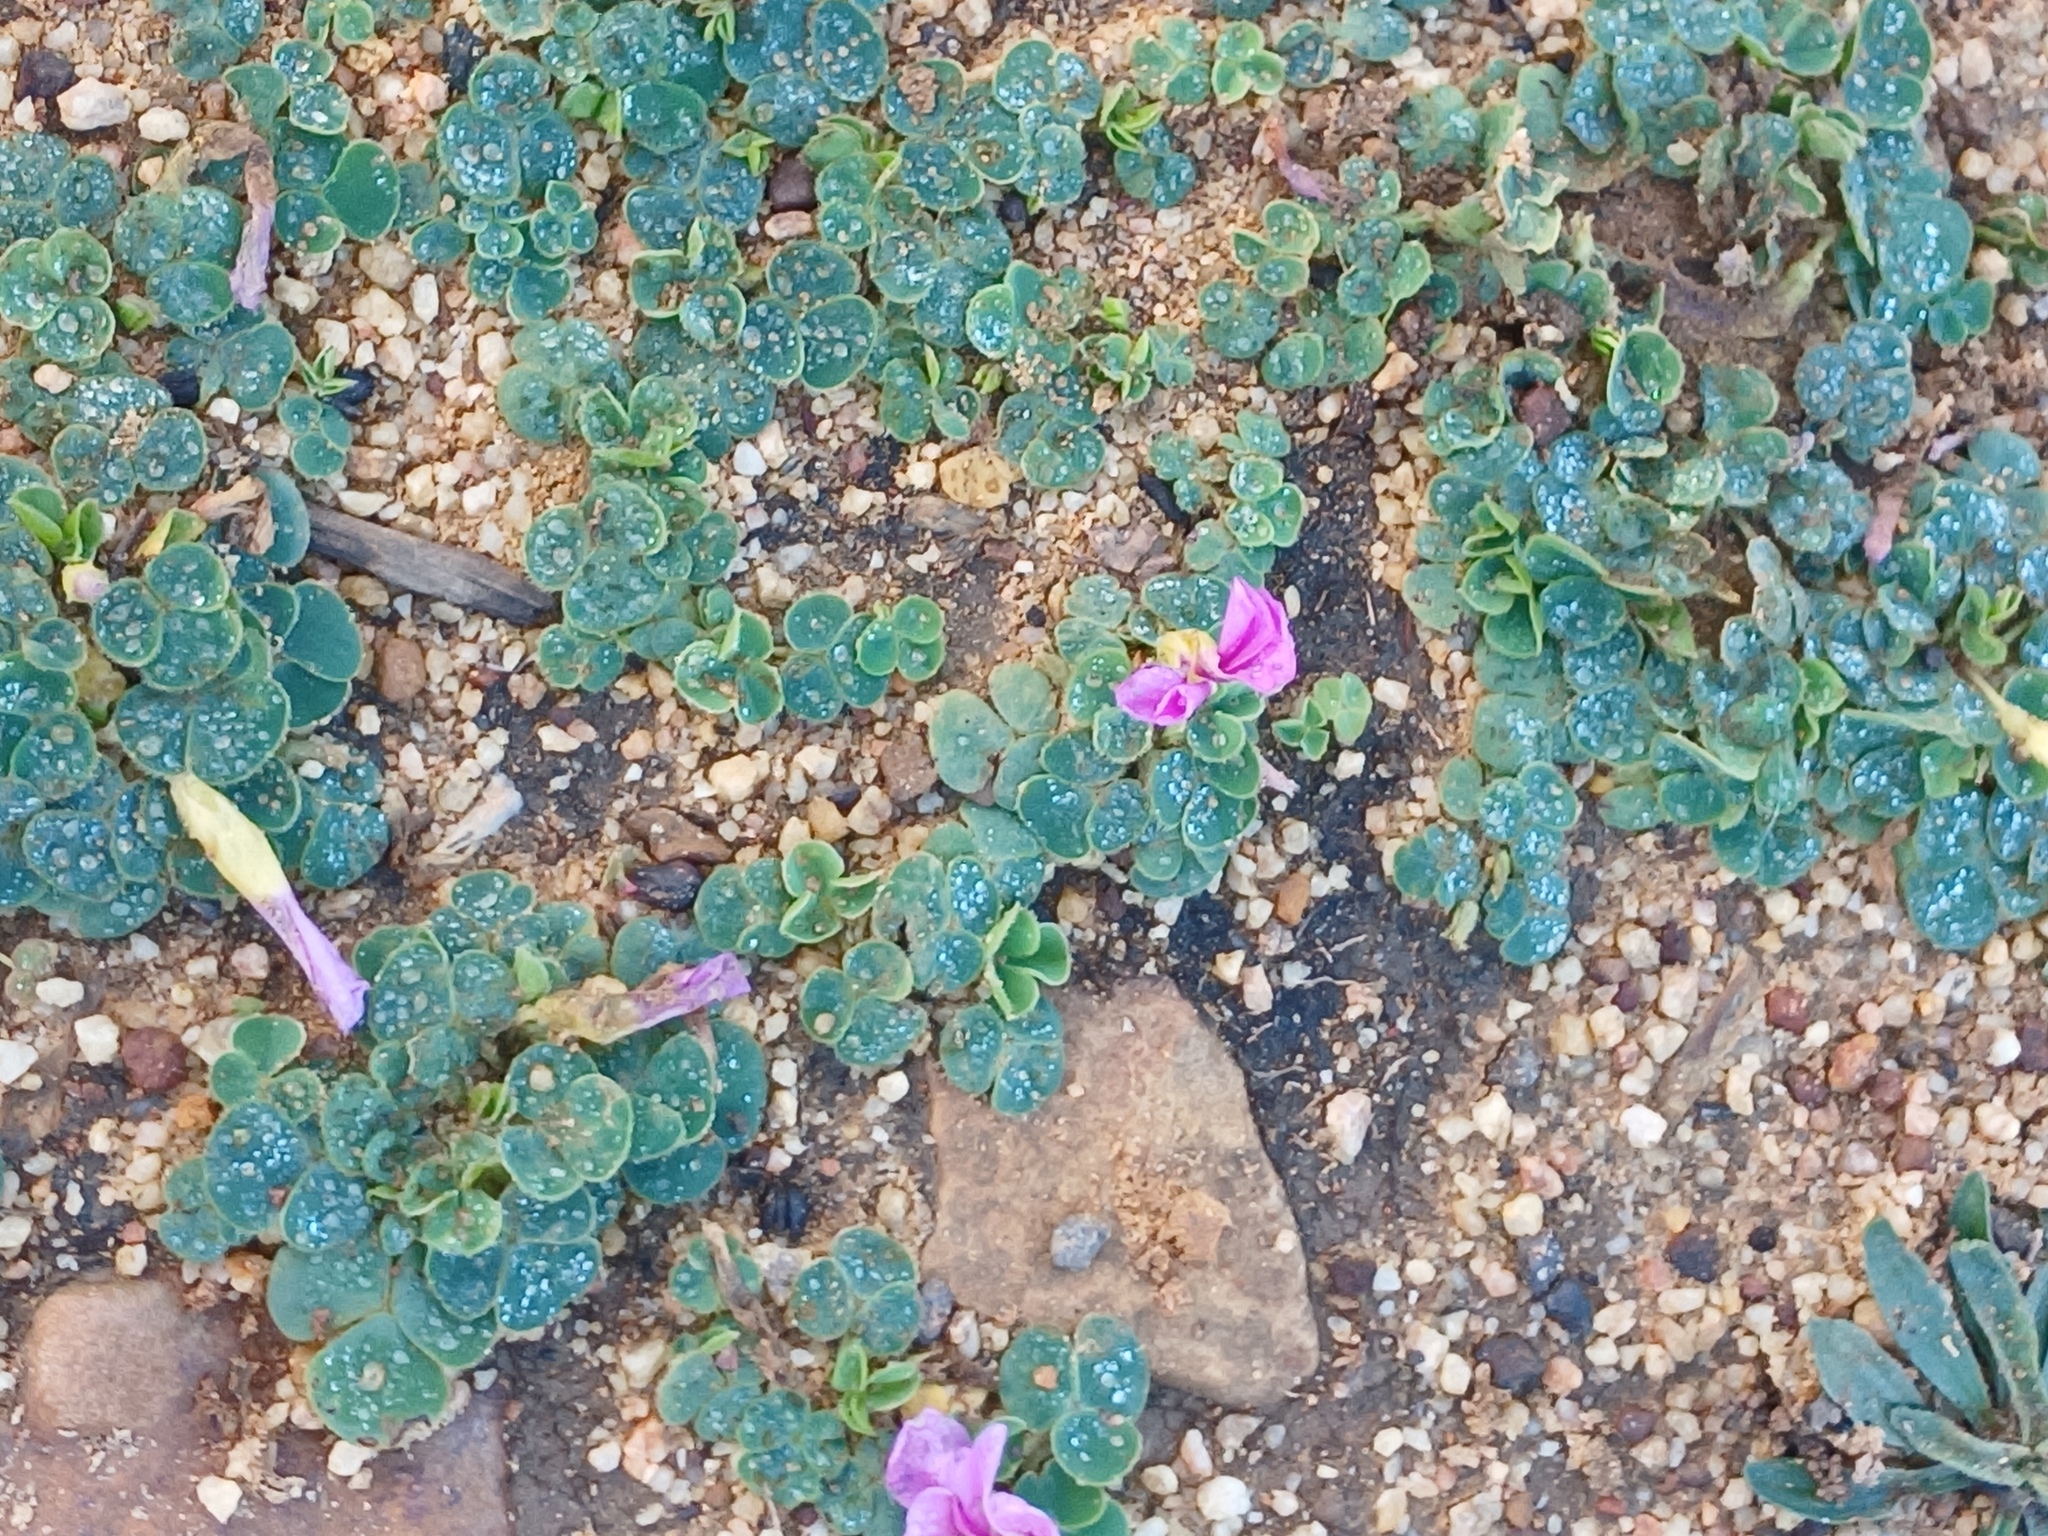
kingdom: Plantae
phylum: Tracheophyta
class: Magnoliopsida
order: Oxalidales
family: Oxalidaceae
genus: Oxalis
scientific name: Oxalis purpurea
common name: Purple woodsorrel
